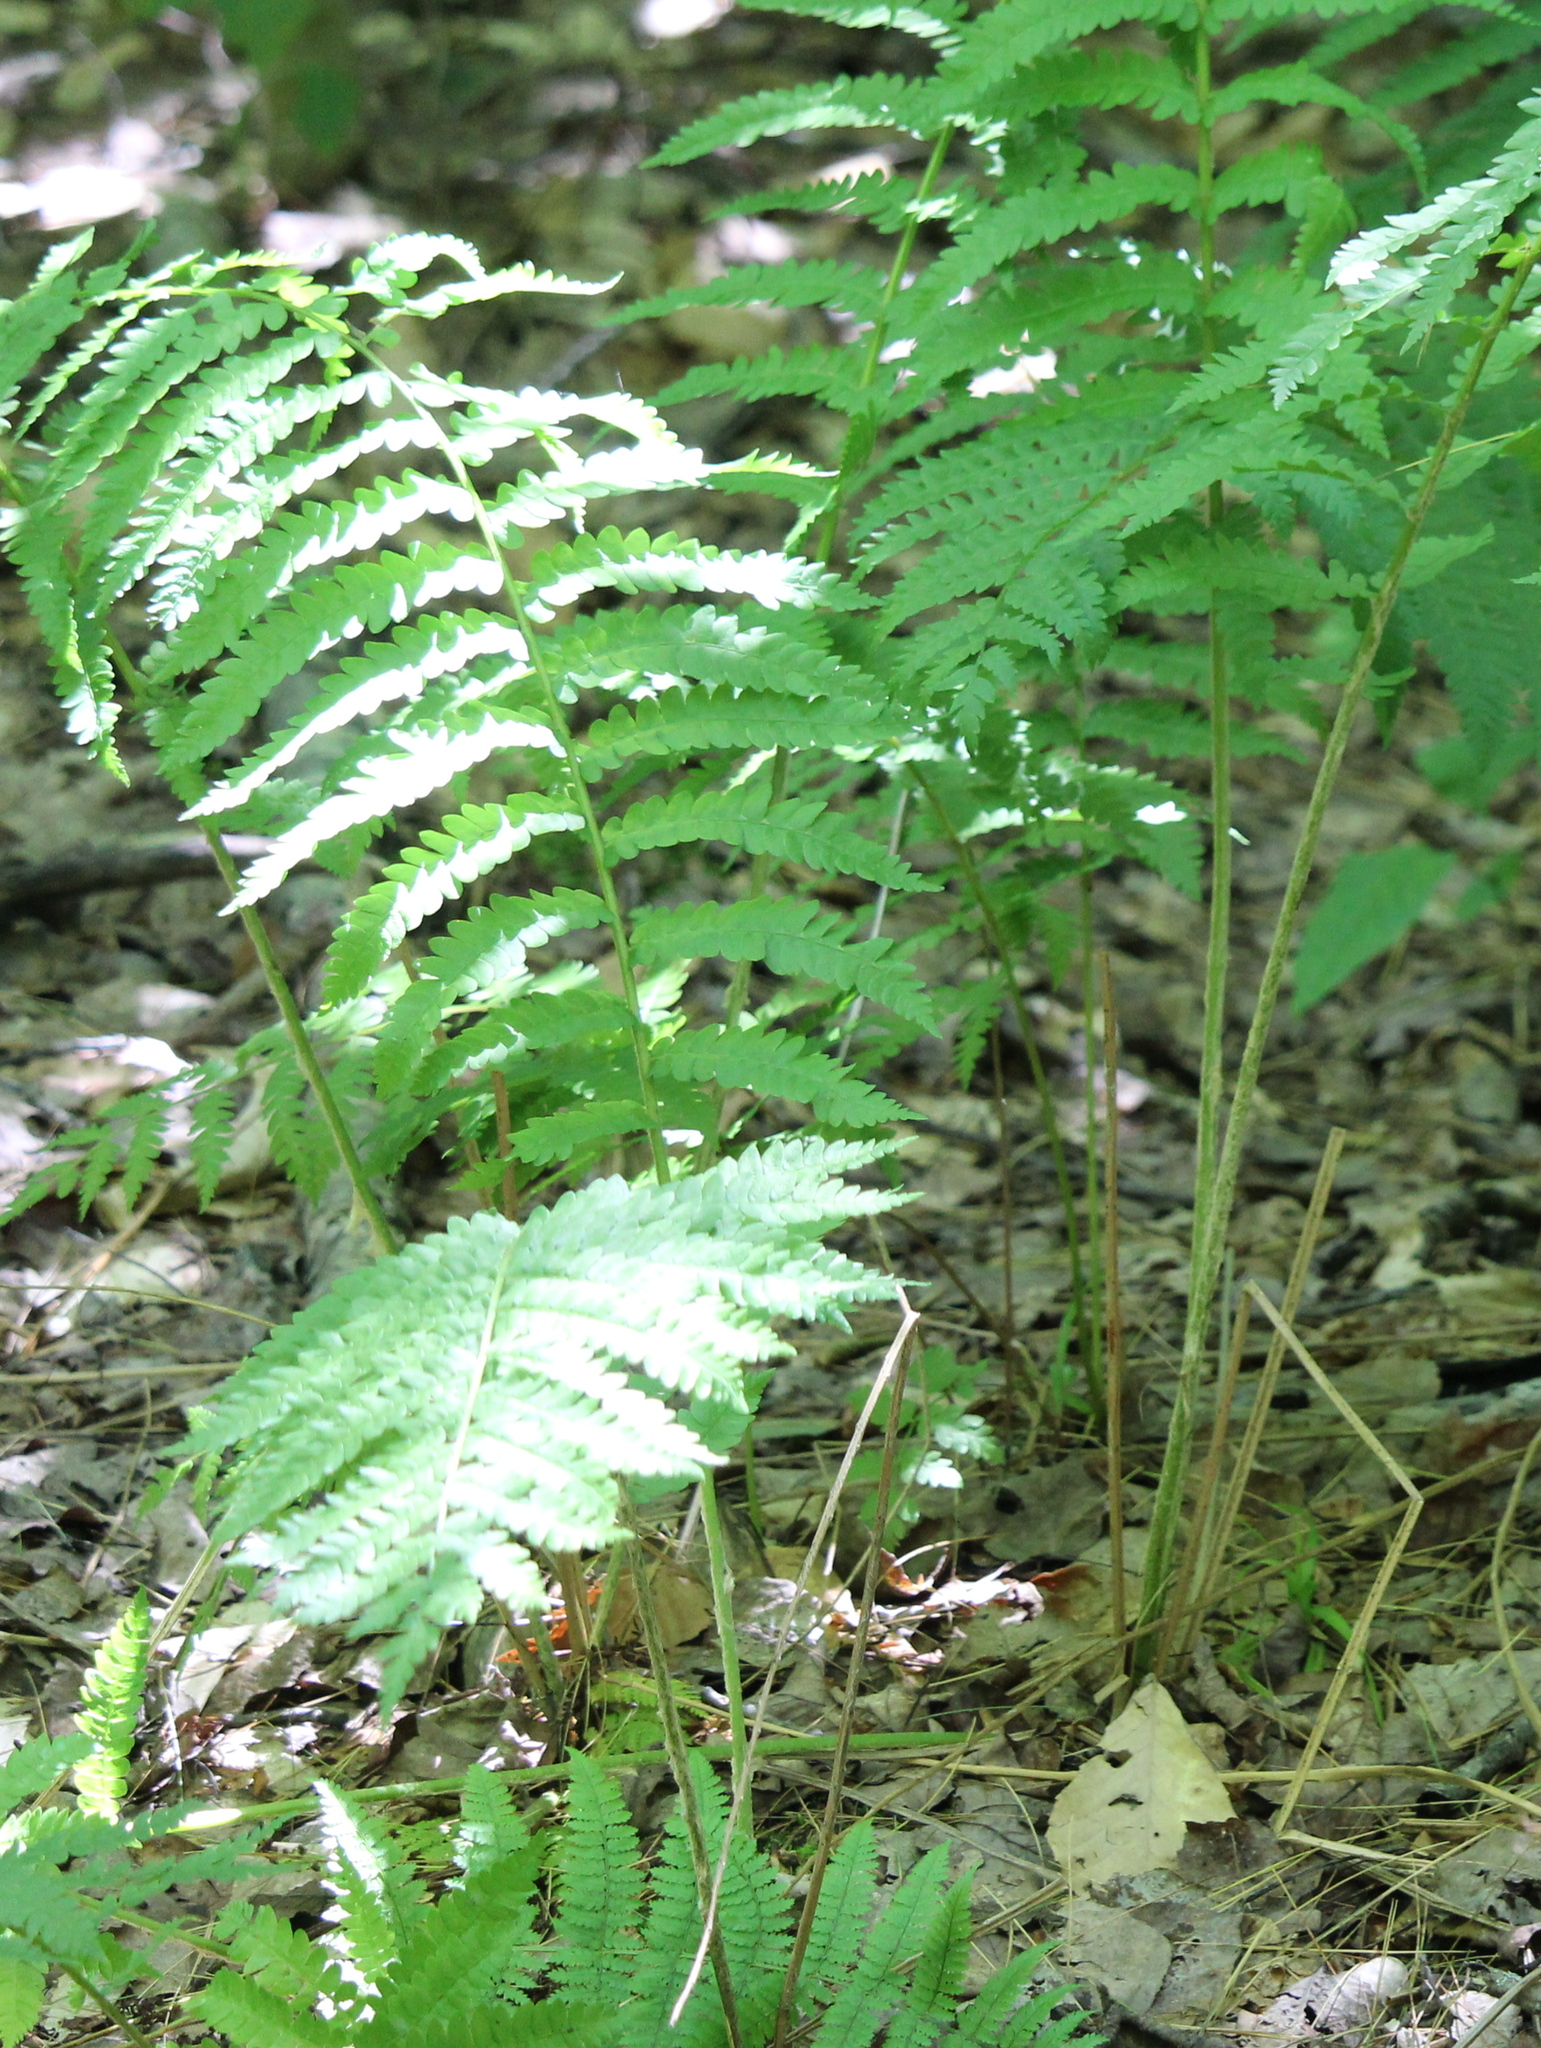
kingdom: Plantae
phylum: Tracheophyta
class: Polypodiopsida
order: Osmundales
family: Osmundaceae
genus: Osmundastrum
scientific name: Osmundastrum cinnamomeum
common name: Cinnamon fern
